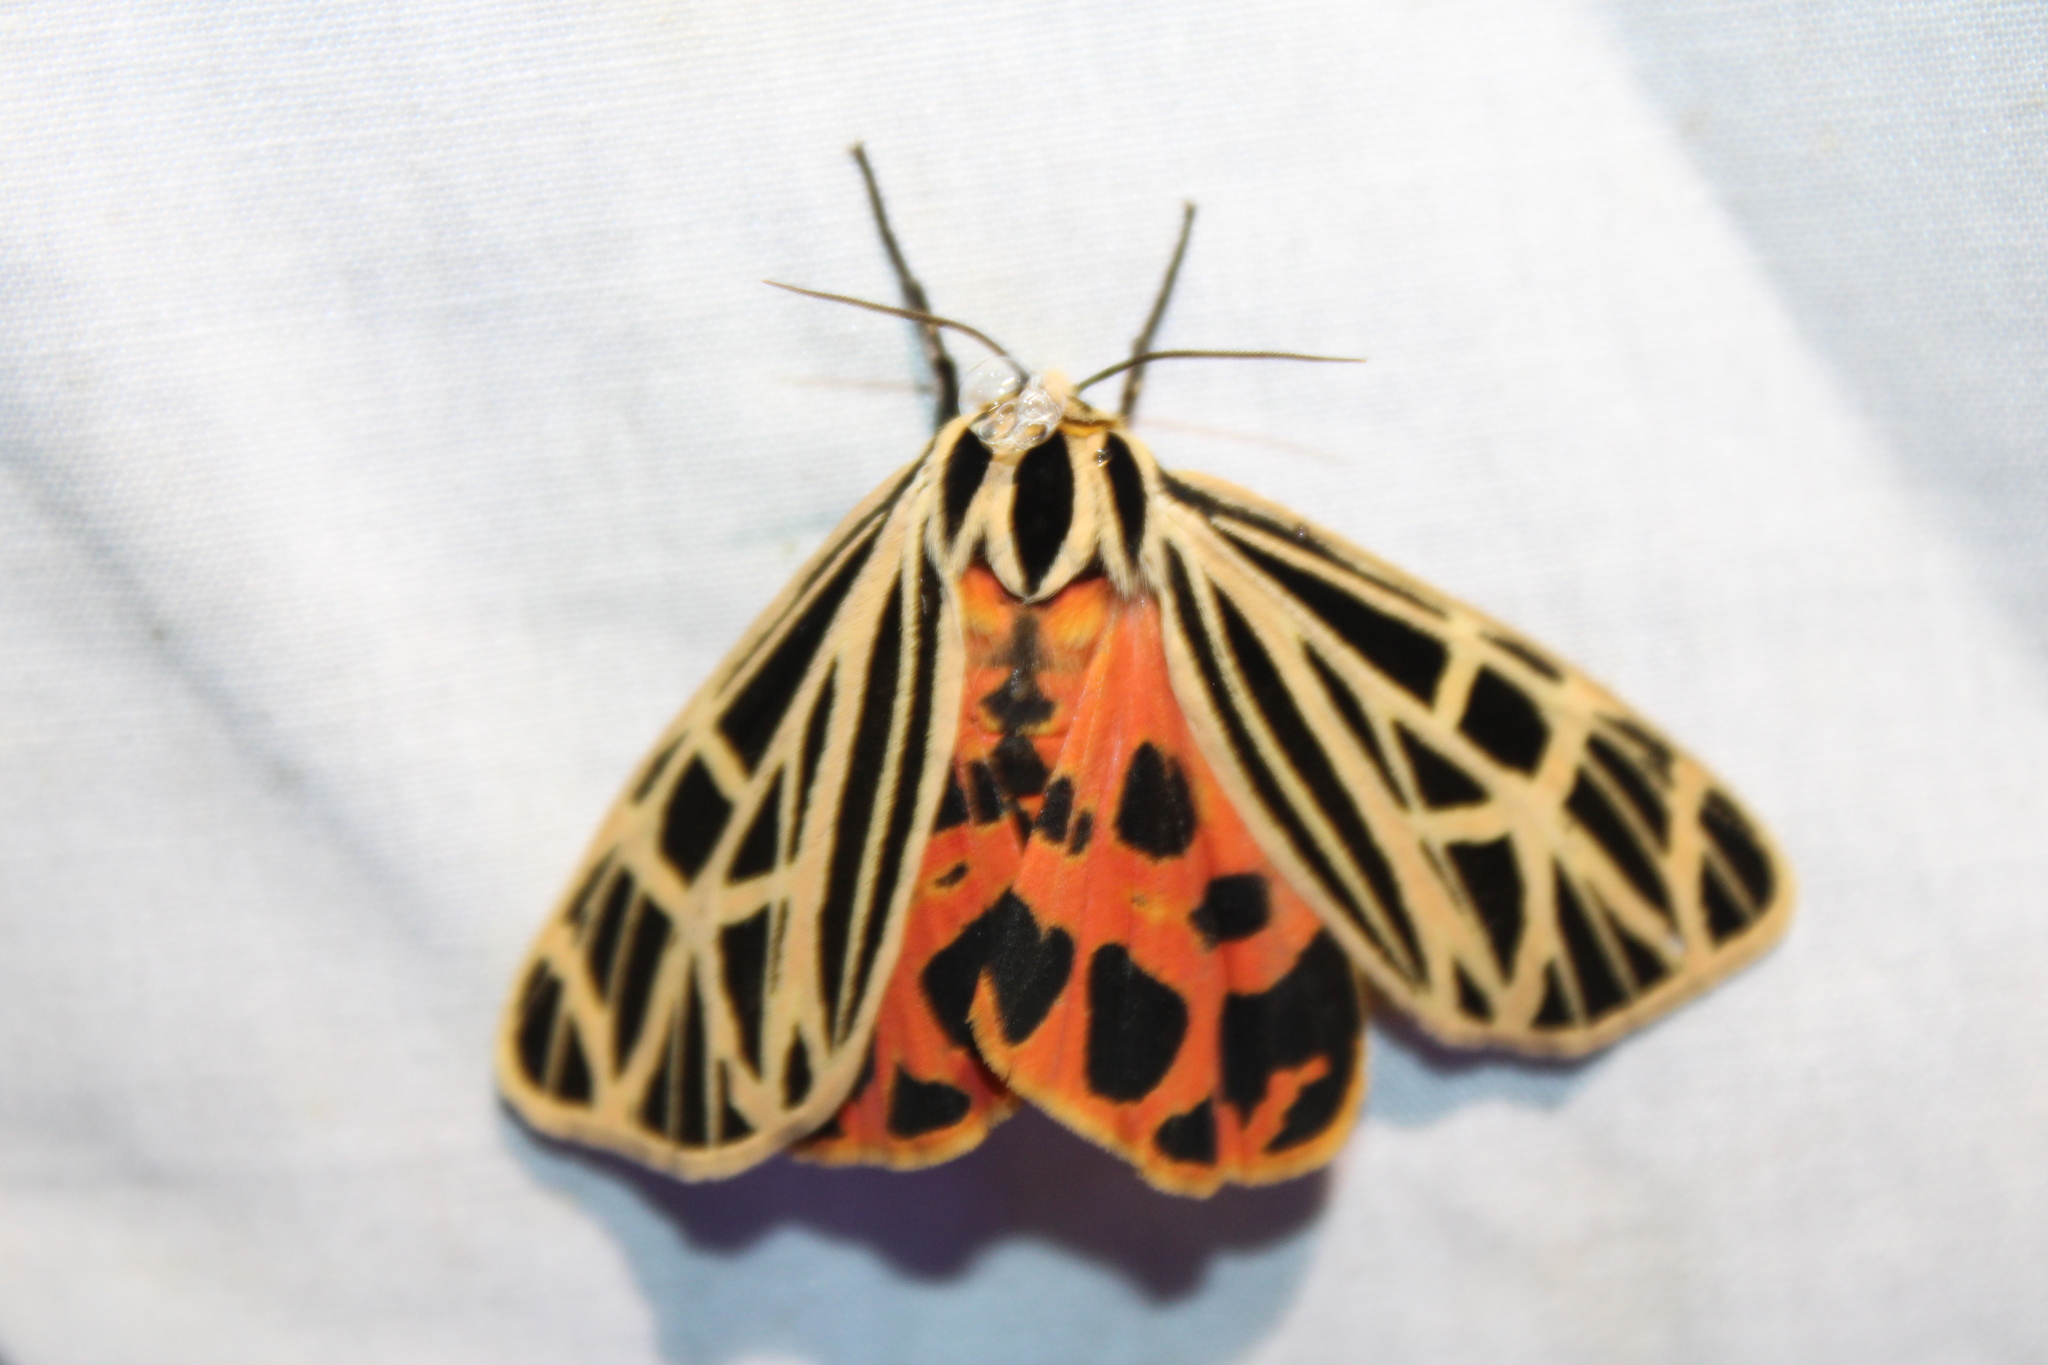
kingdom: Animalia
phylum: Arthropoda
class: Insecta
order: Lepidoptera
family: Erebidae
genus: Grammia
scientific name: Grammia virgo
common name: Virgin tiger moth
